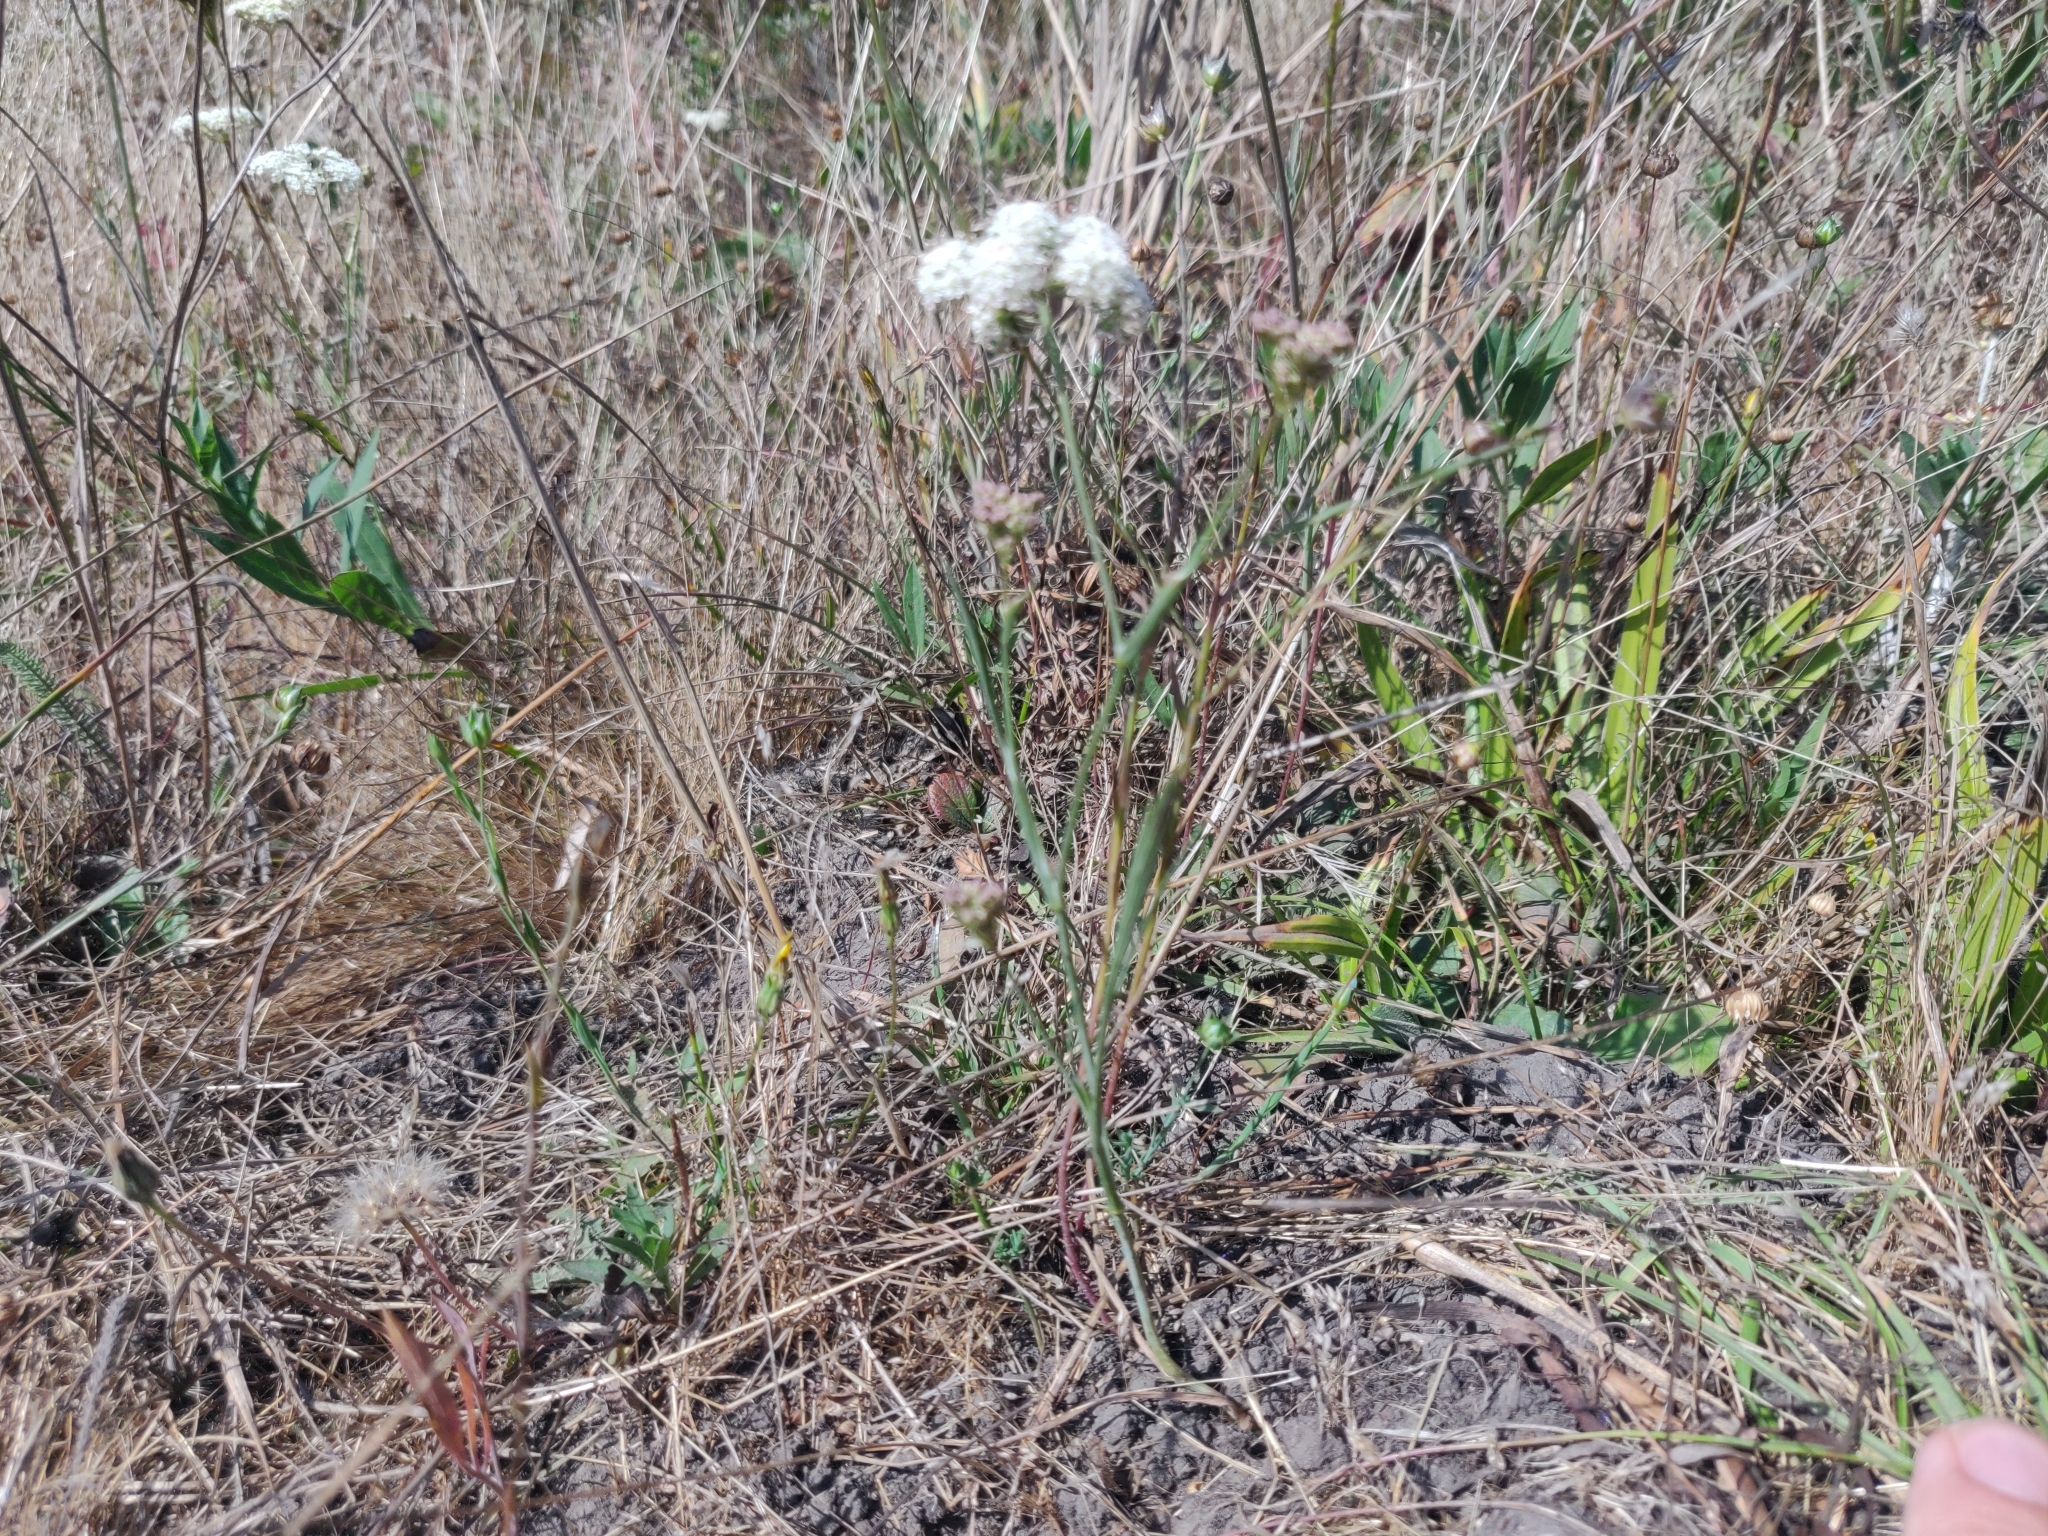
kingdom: Plantae
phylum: Tracheophyta
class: Magnoliopsida
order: Apiales
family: Apiaceae
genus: Perideridia
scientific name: Perideridia gairdneri
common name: False caraway
